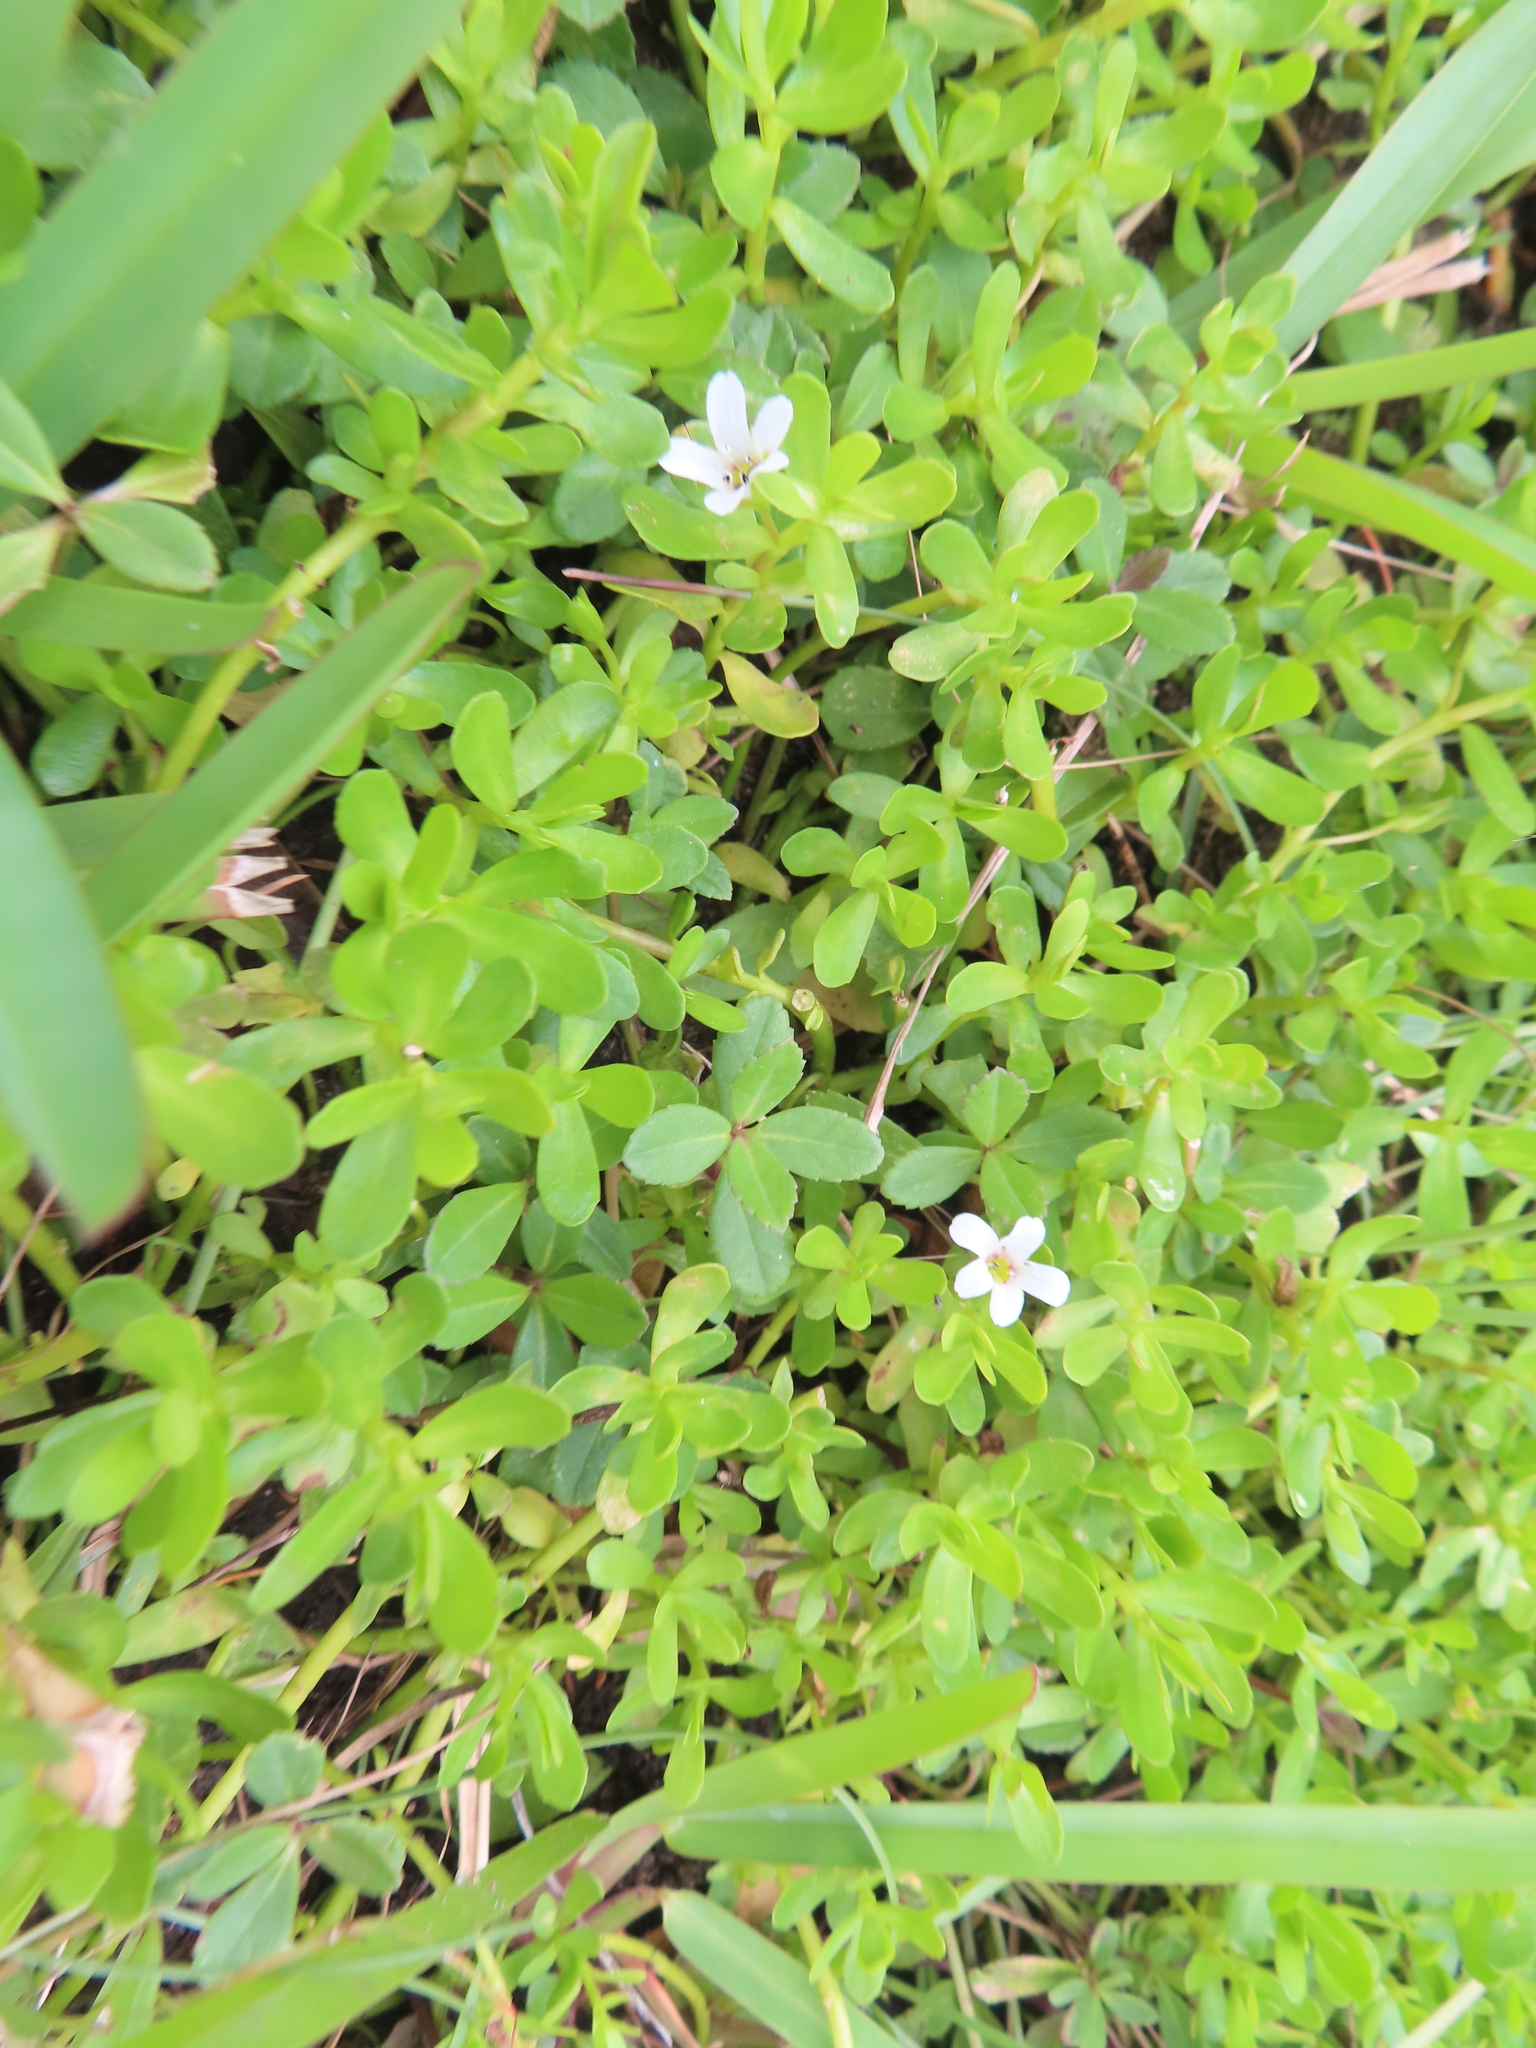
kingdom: Plantae
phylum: Tracheophyta
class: Magnoliopsida
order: Lamiales
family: Plantaginaceae
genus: Bacopa
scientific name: Bacopa monnieri
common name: Indian-pennywort
